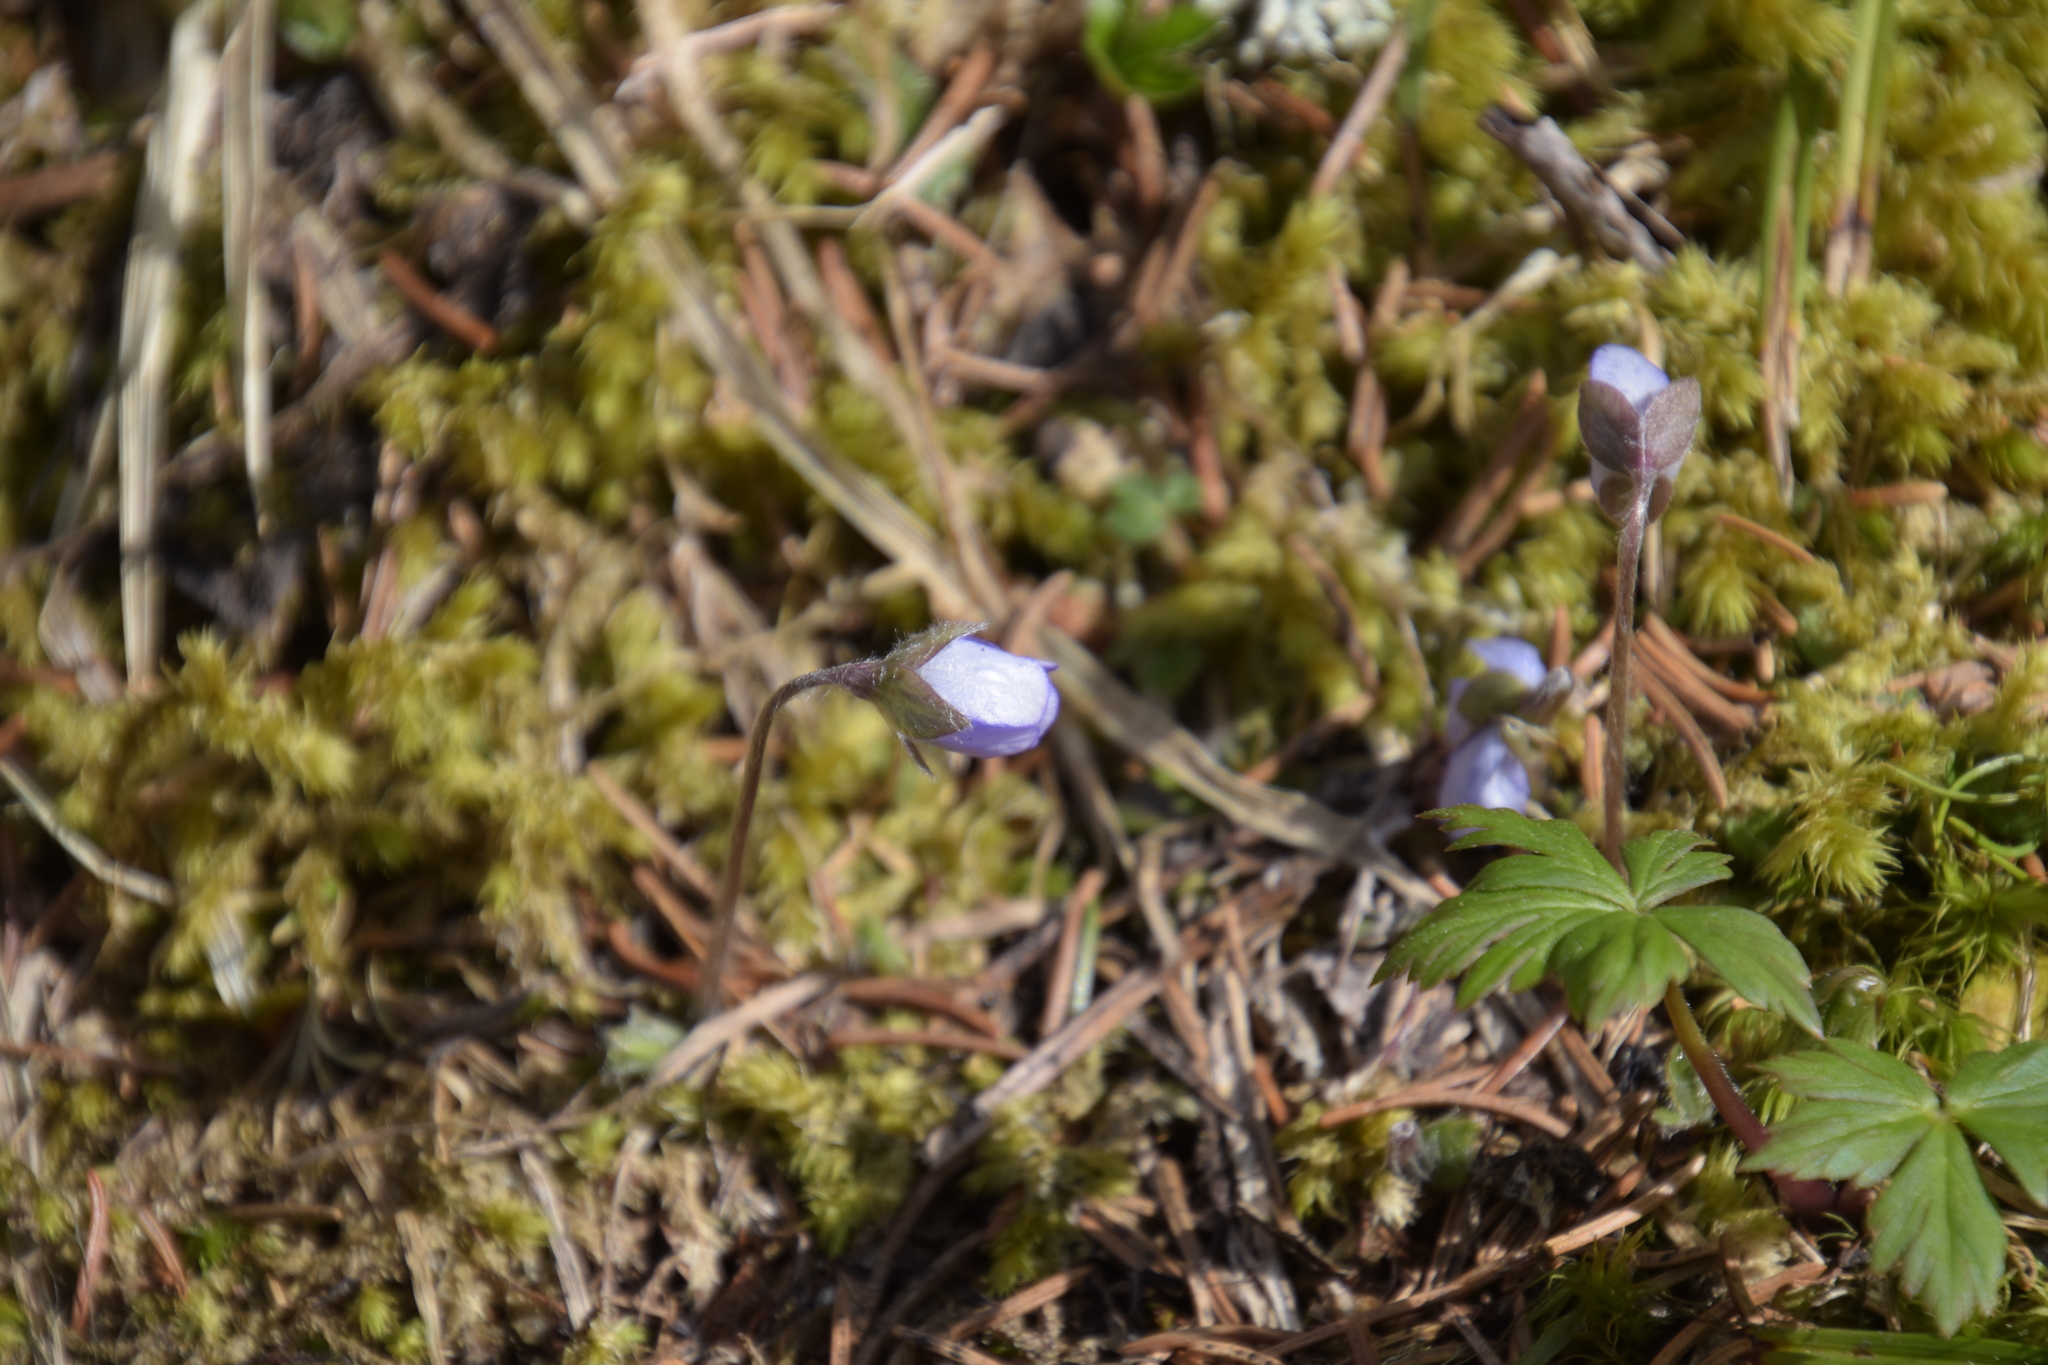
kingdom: Plantae
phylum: Tracheophyta
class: Magnoliopsida
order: Ranunculales
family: Ranunculaceae
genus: Hepatica
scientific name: Hepatica nobilis
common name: Liverleaf
